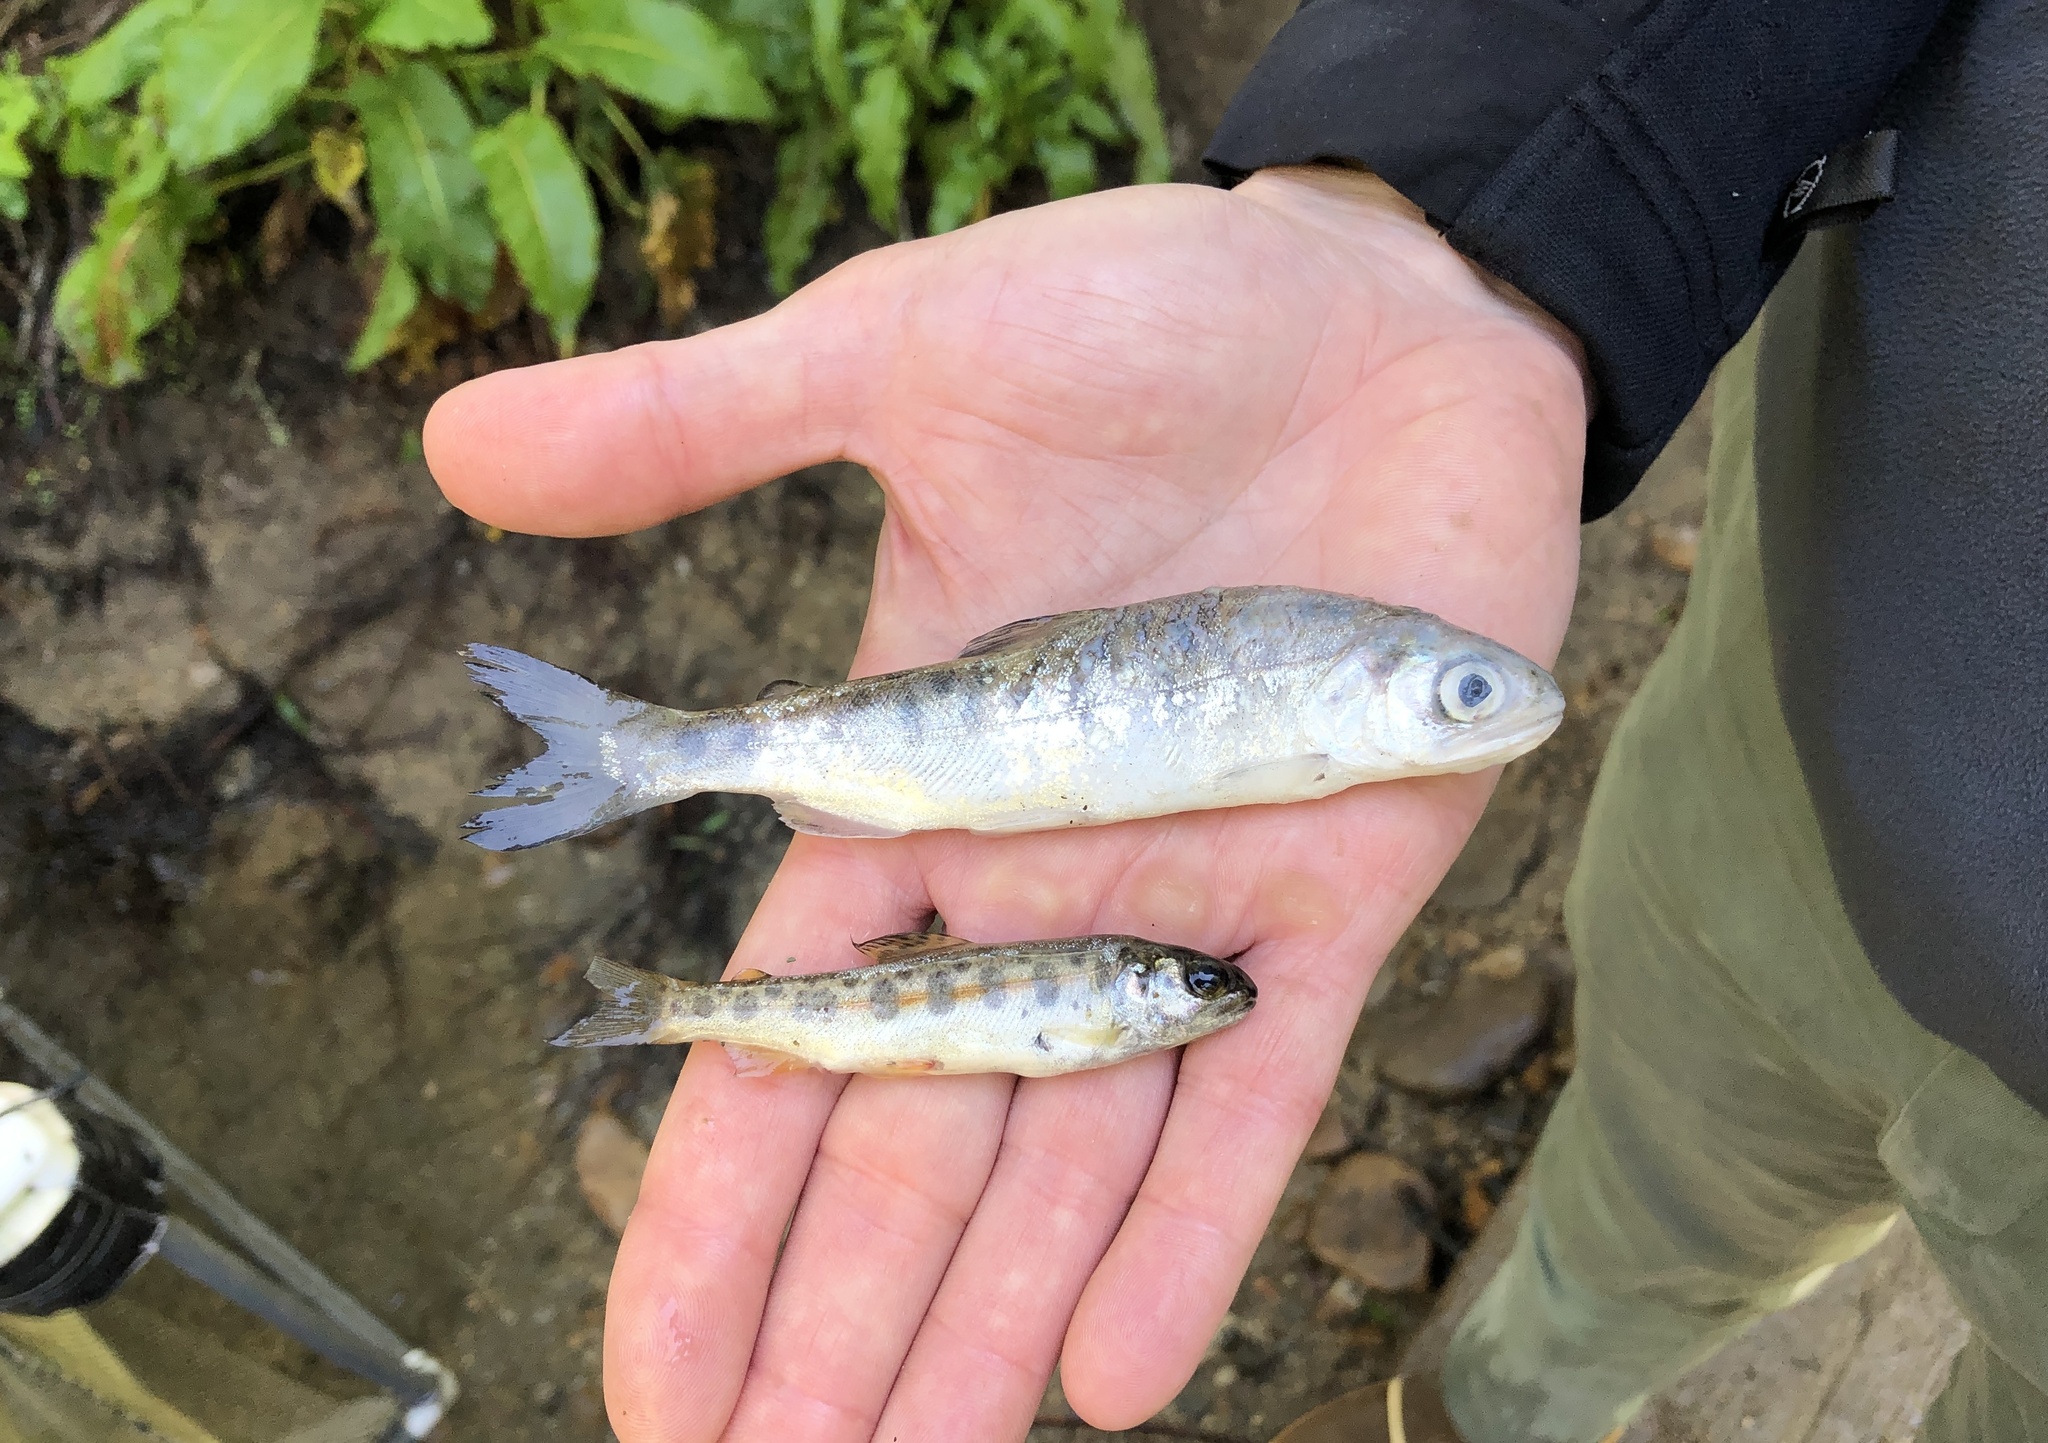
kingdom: Animalia
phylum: Chordata
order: Salmoniformes
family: Salmonidae
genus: Oncorhynchus
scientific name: Oncorhynchus kisutch
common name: Coho salmon
